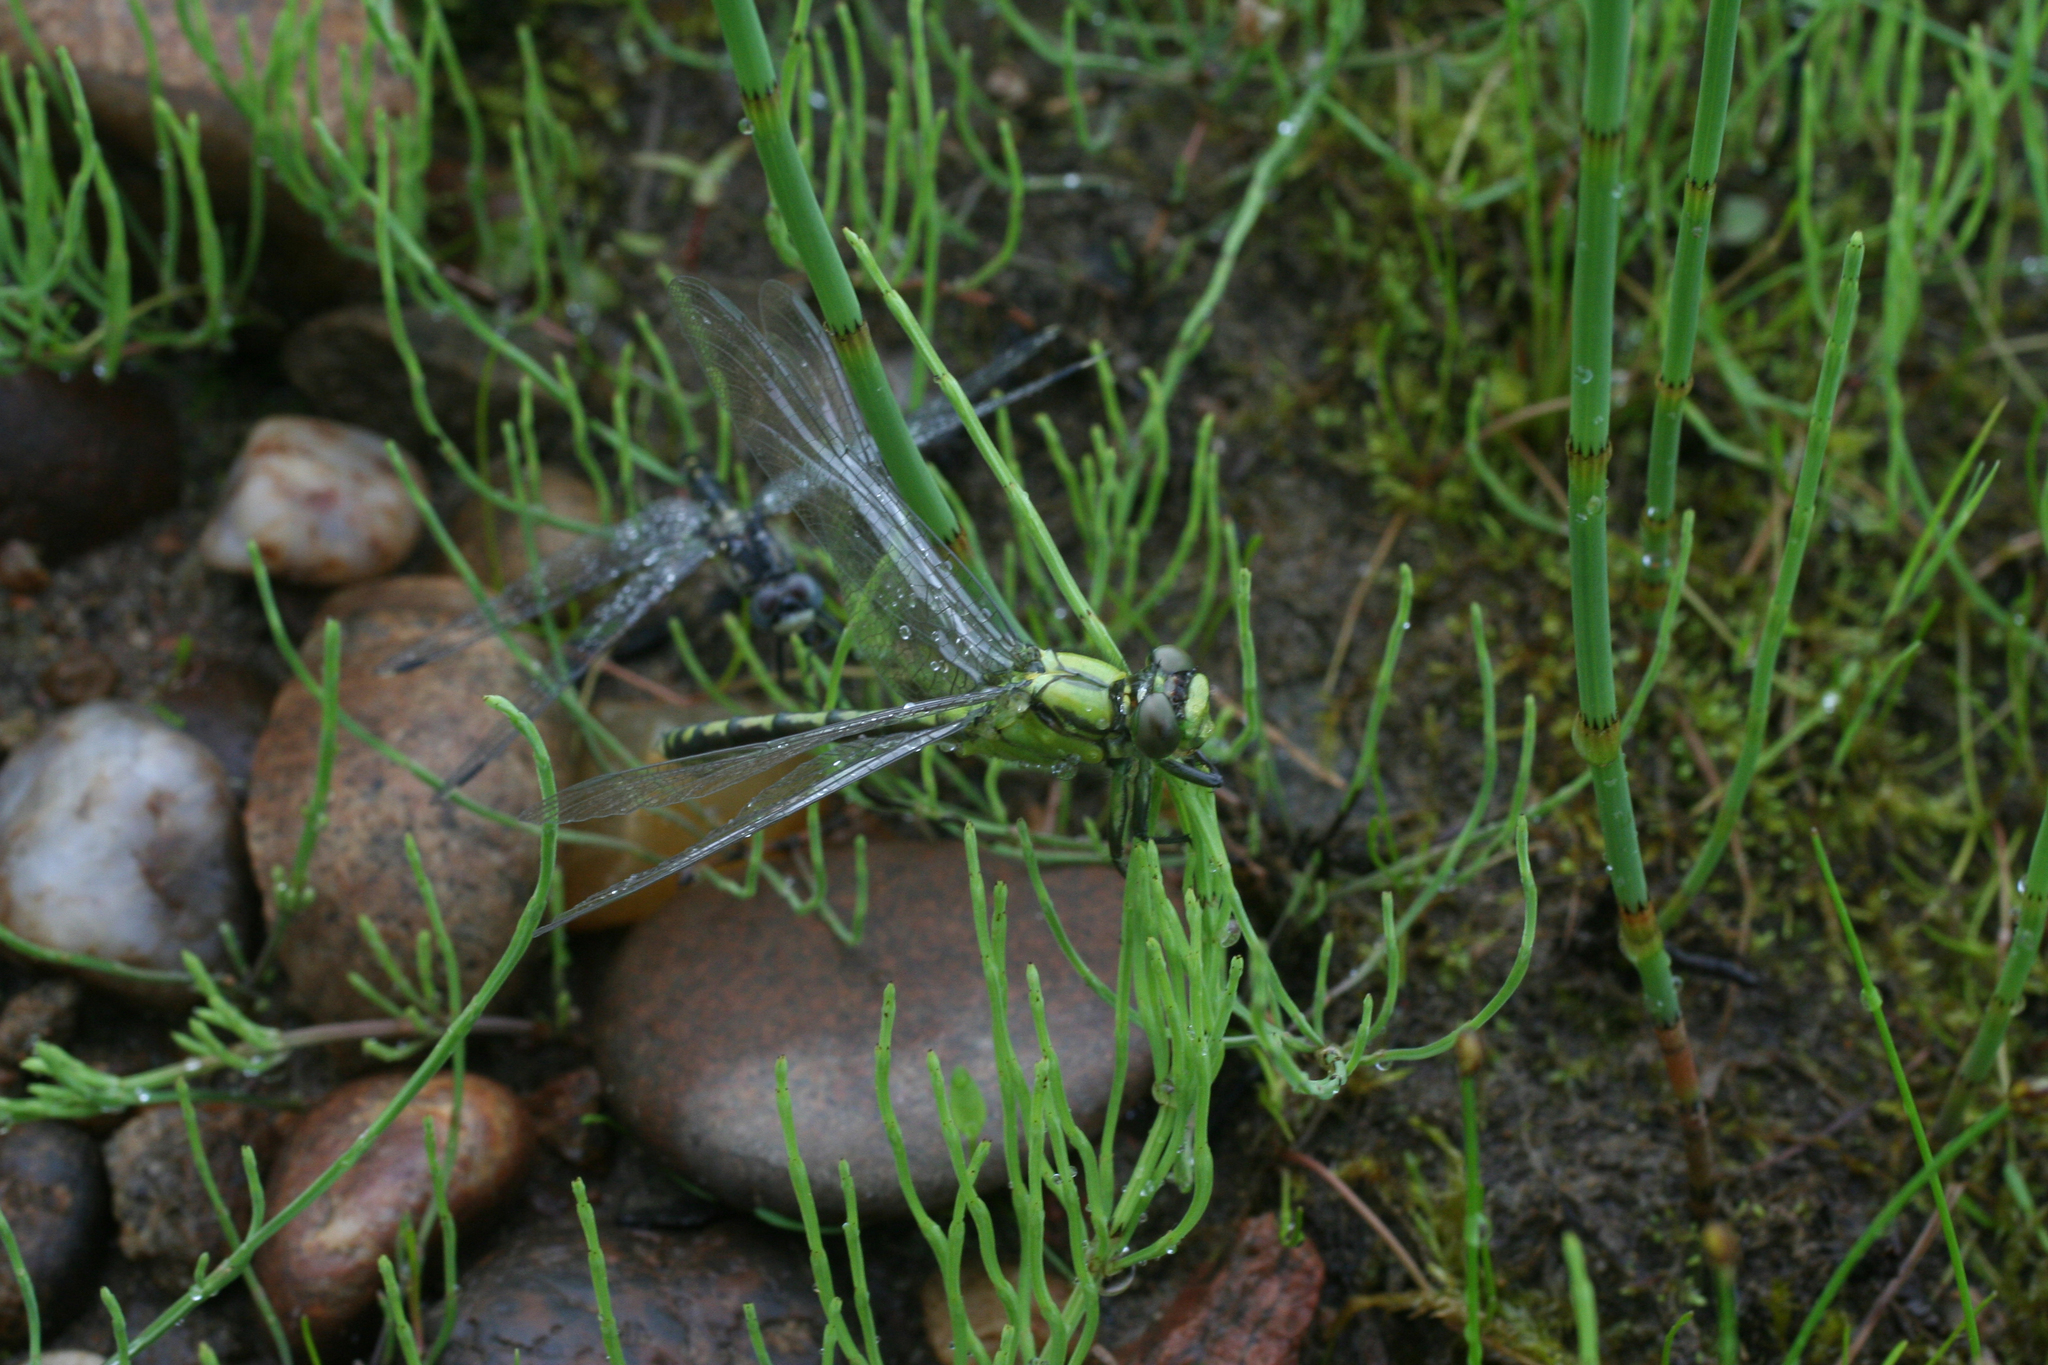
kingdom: Animalia
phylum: Arthropoda
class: Insecta
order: Odonata
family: Gomphidae
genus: Ophiogomphus
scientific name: Ophiogomphus obscurus
